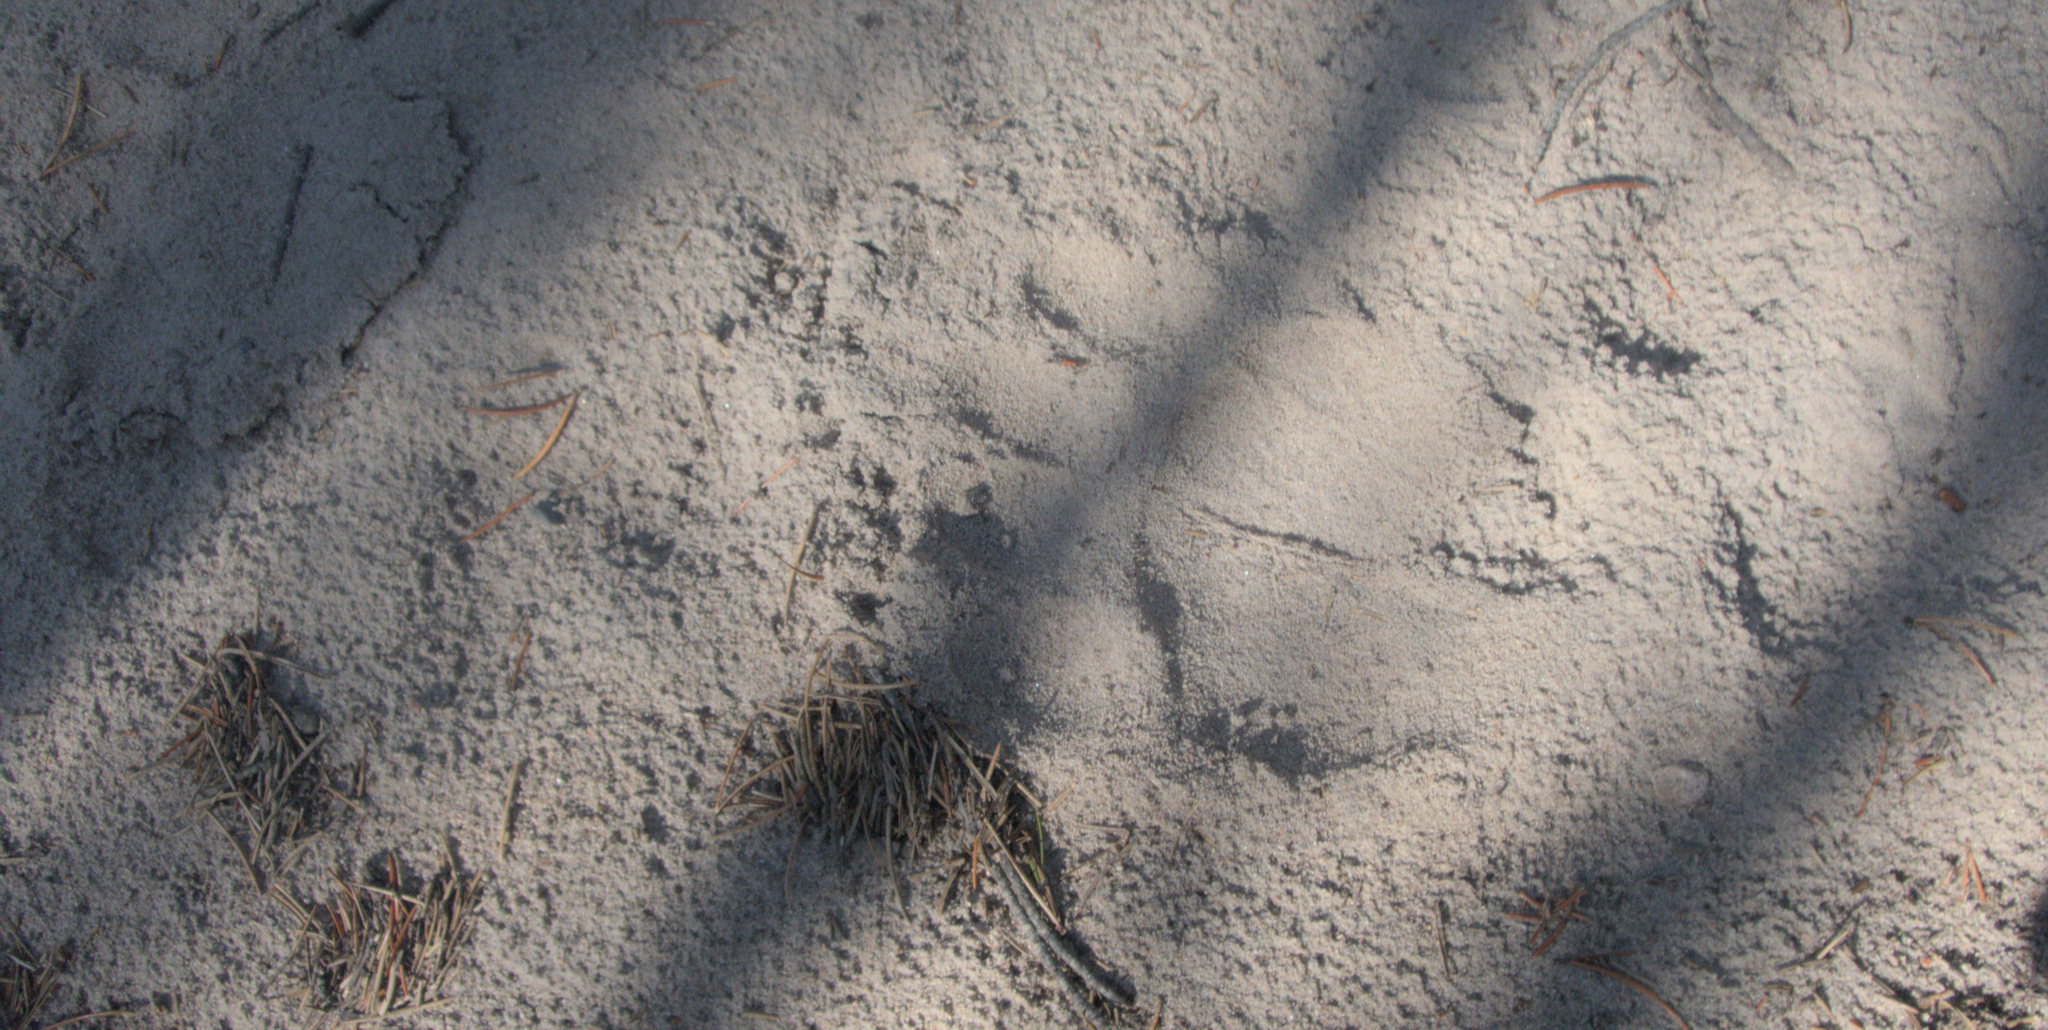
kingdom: Animalia
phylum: Chordata
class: Mammalia
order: Carnivora
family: Ursidae
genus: Ursus
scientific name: Ursus americanus
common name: American black bear
